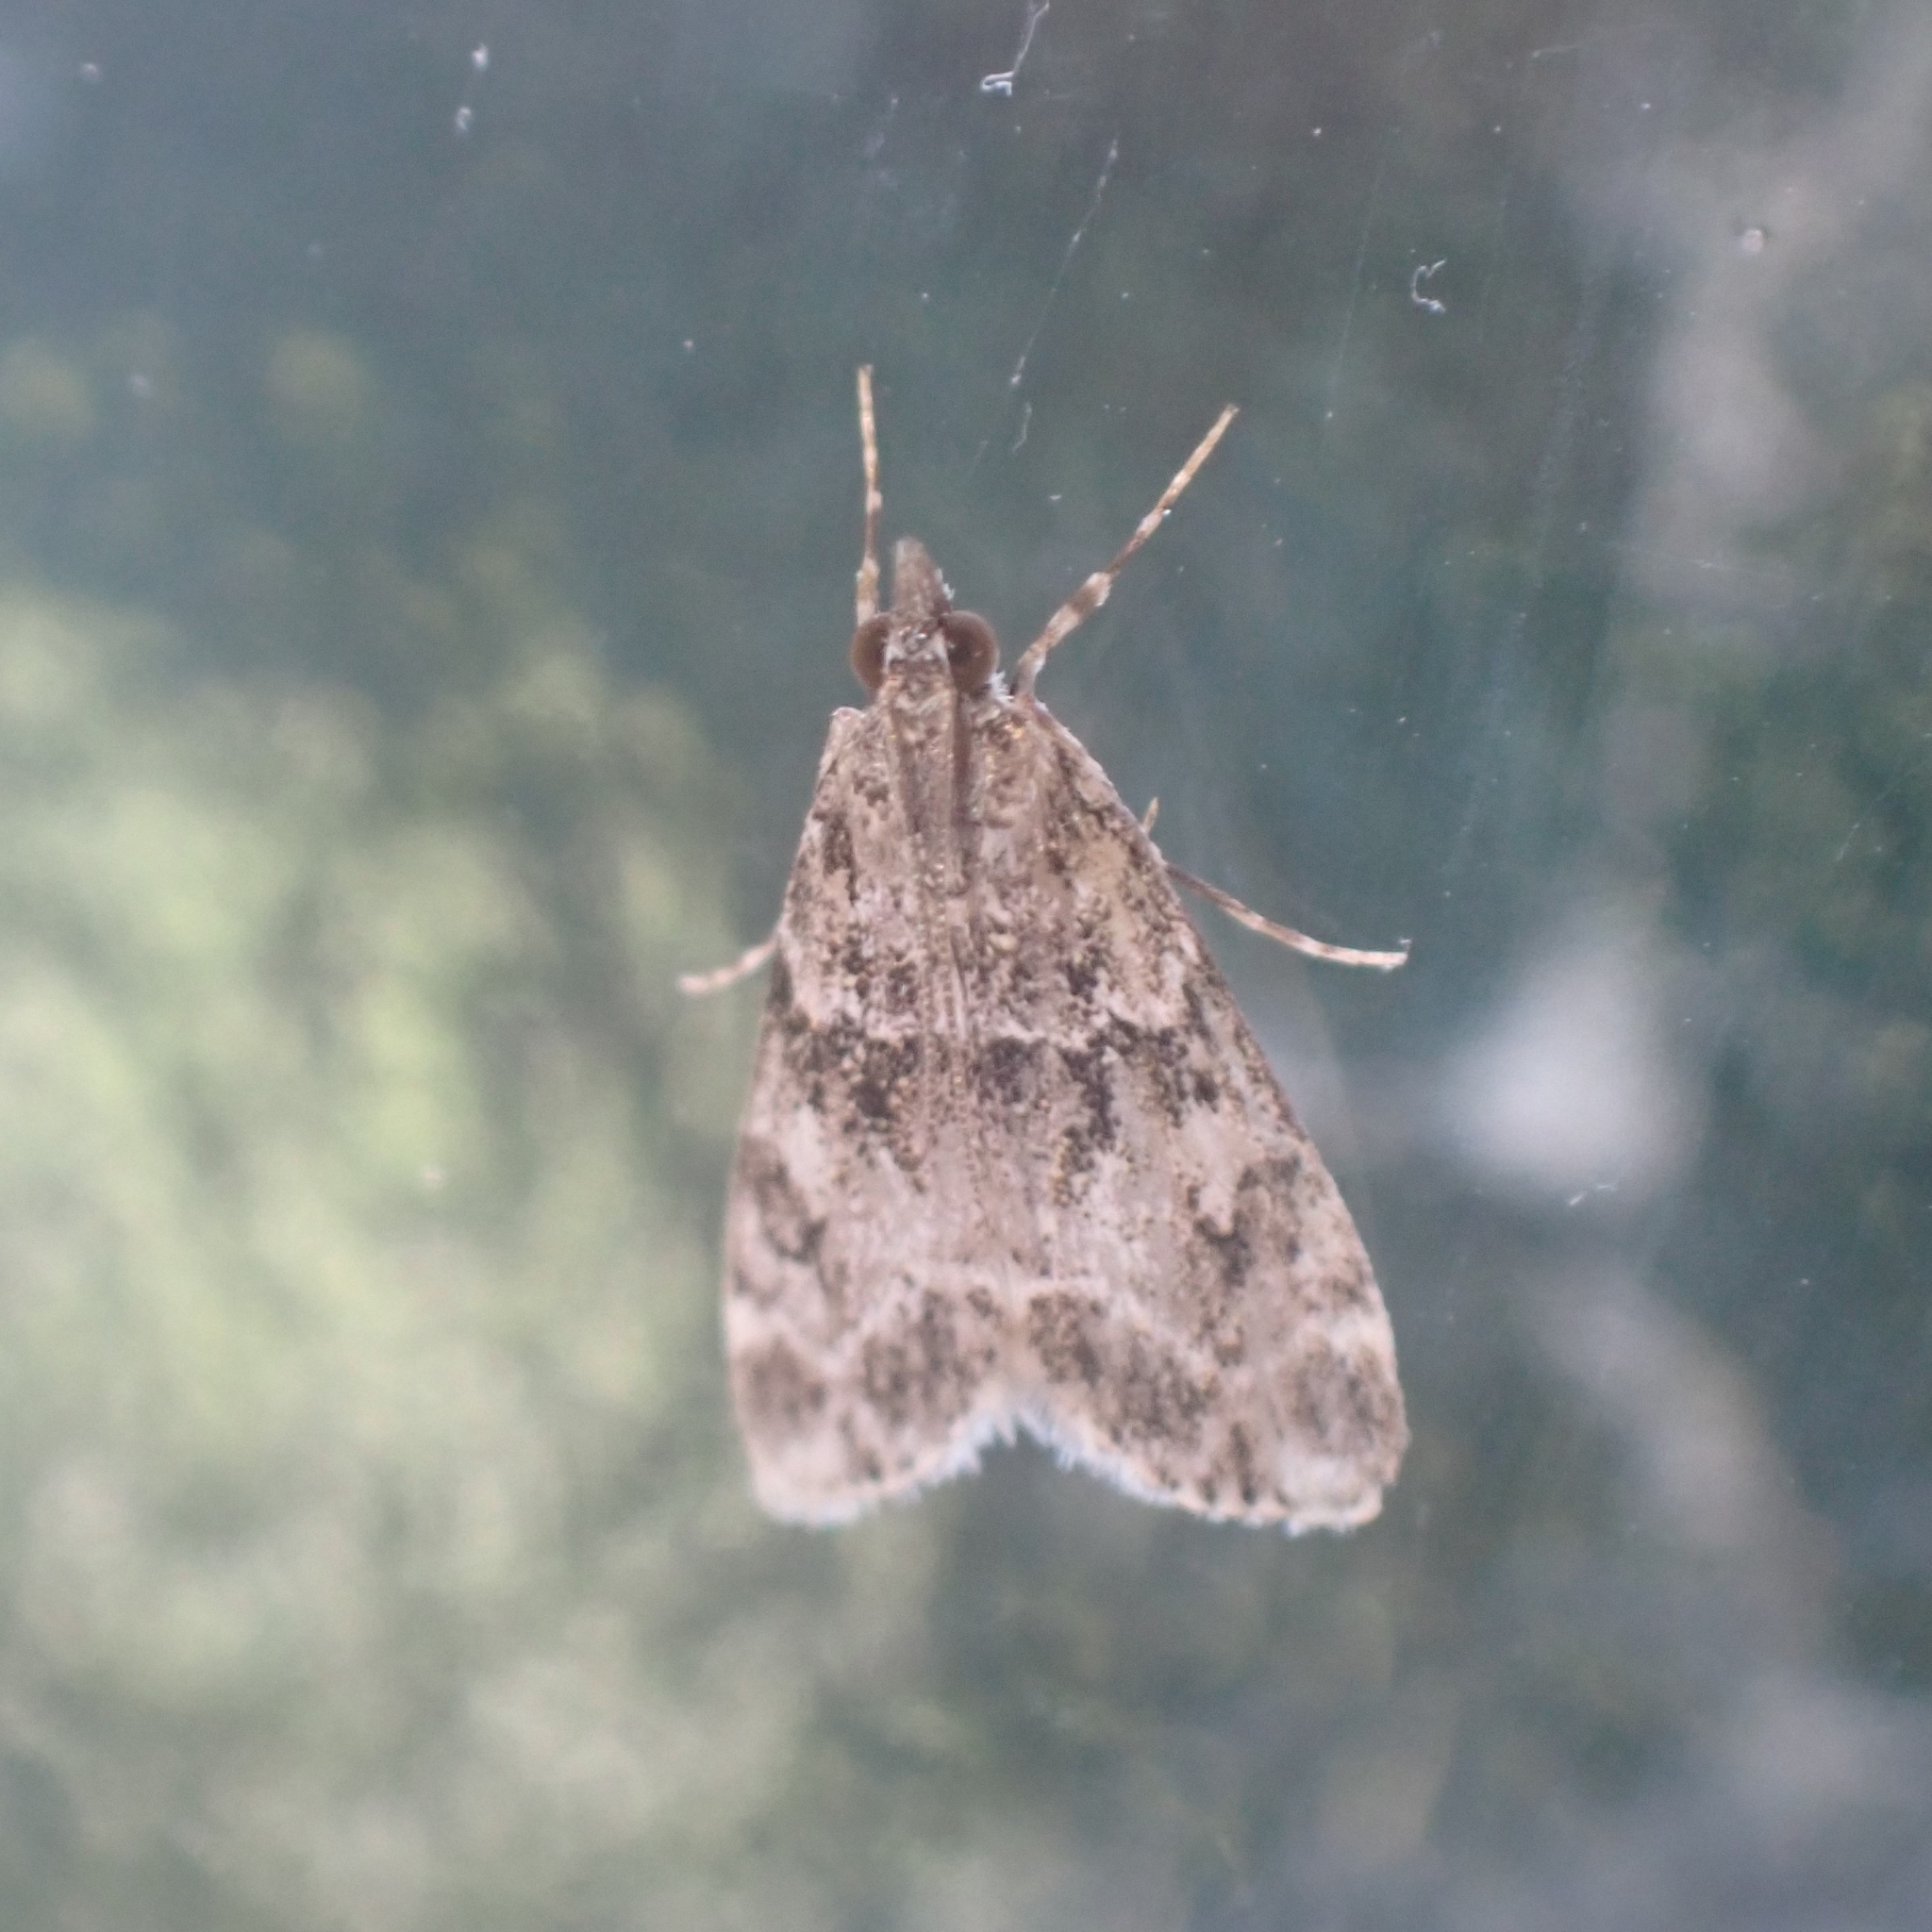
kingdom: Animalia
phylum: Arthropoda
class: Insecta
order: Lepidoptera
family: Crambidae
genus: Eudonia
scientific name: Eudonia mercurella
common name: Small grey
